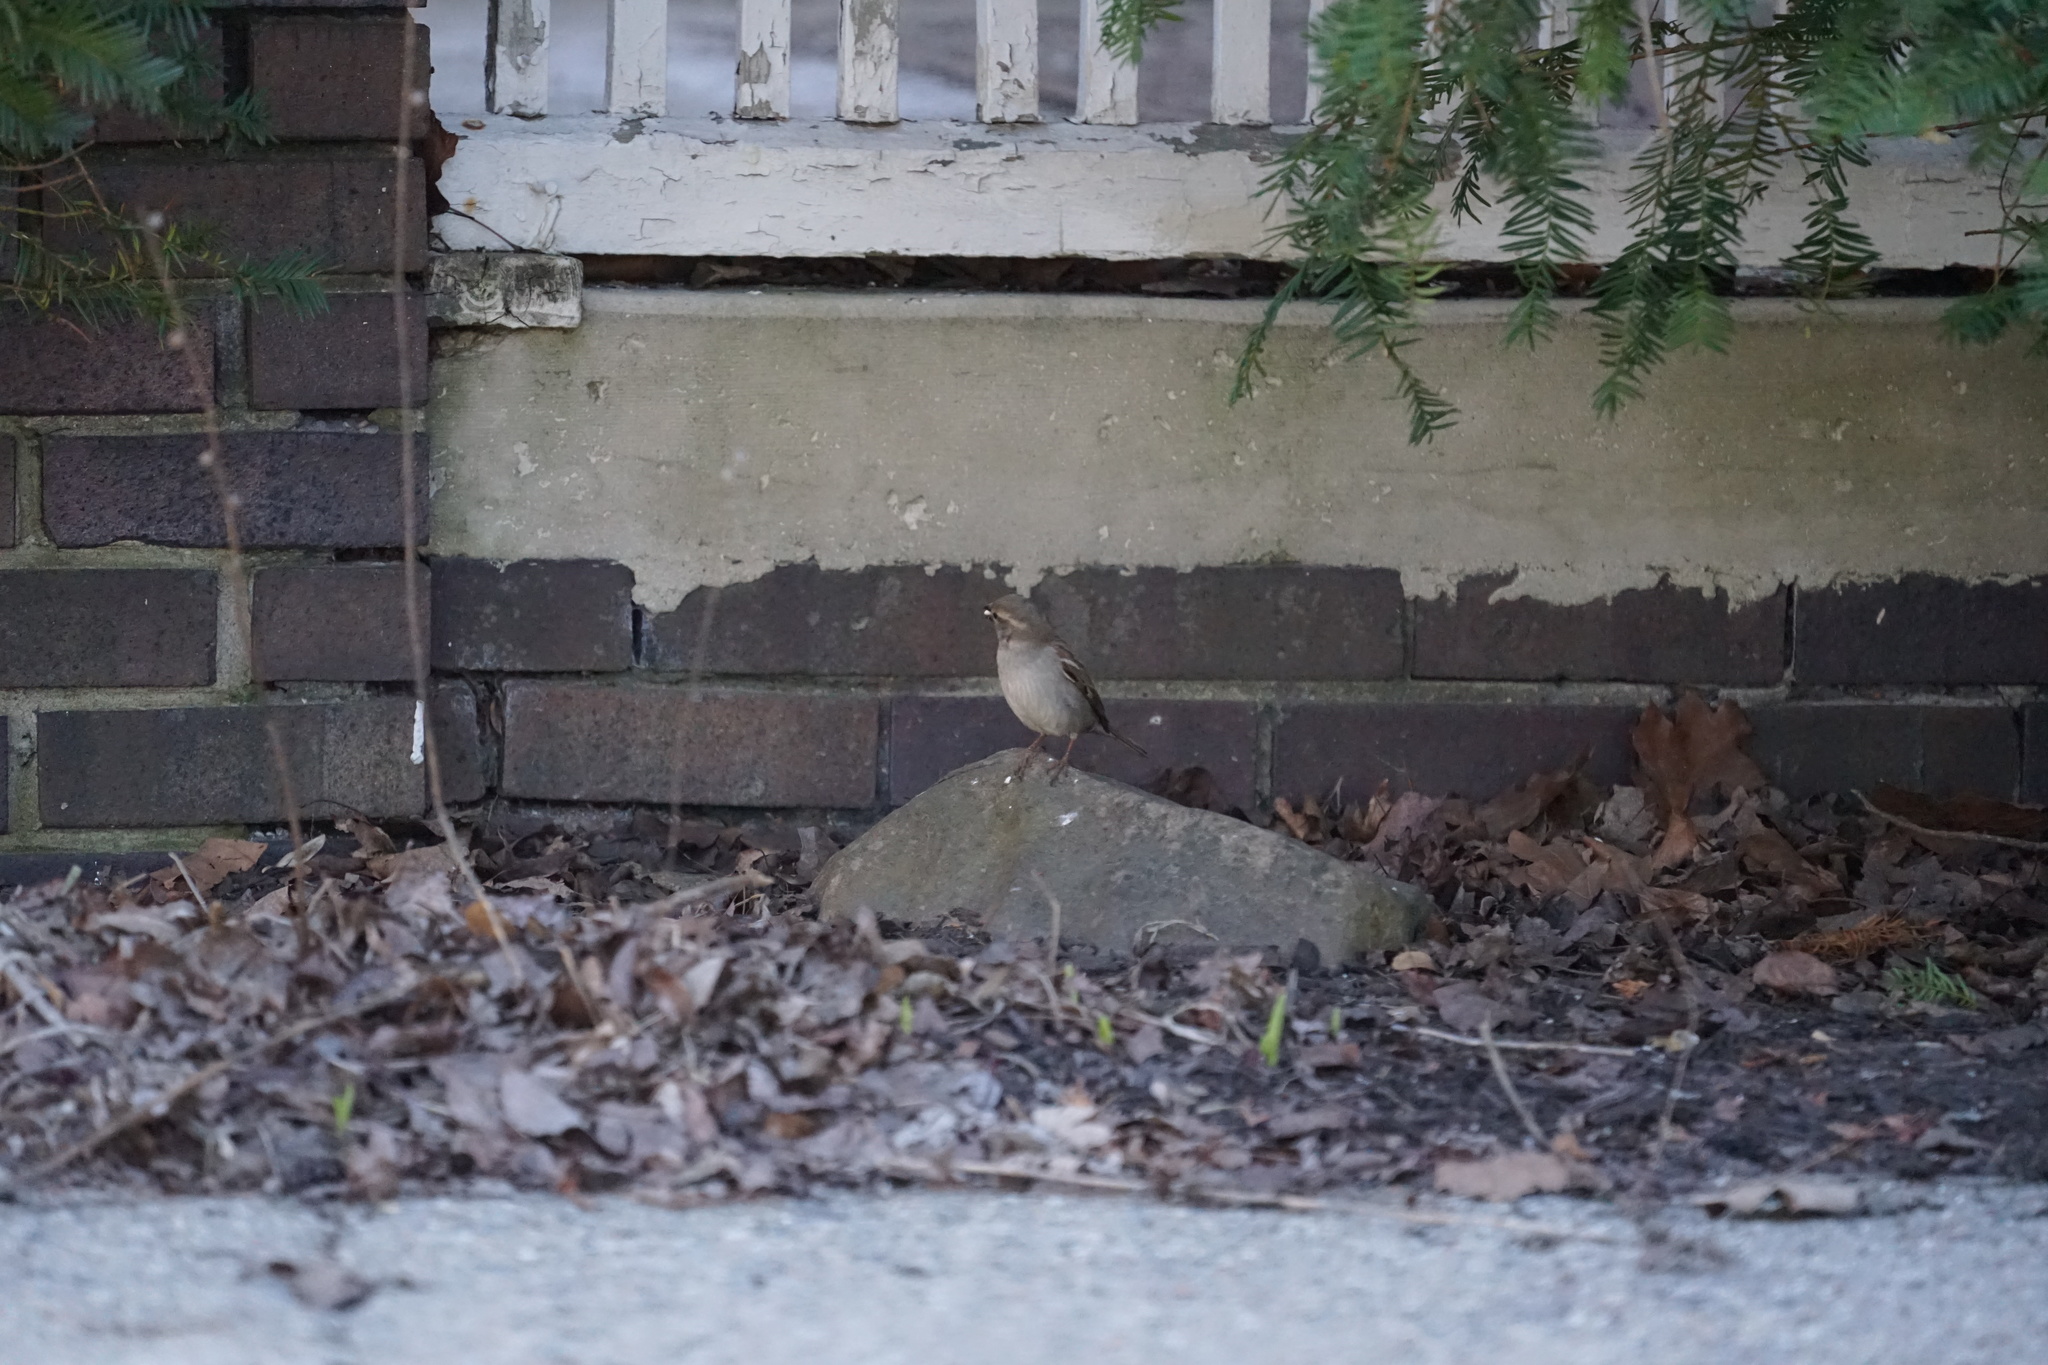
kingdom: Animalia
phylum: Chordata
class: Aves
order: Passeriformes
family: Passeridae
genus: Passer
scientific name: Passer domesticus
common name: House sparrow
